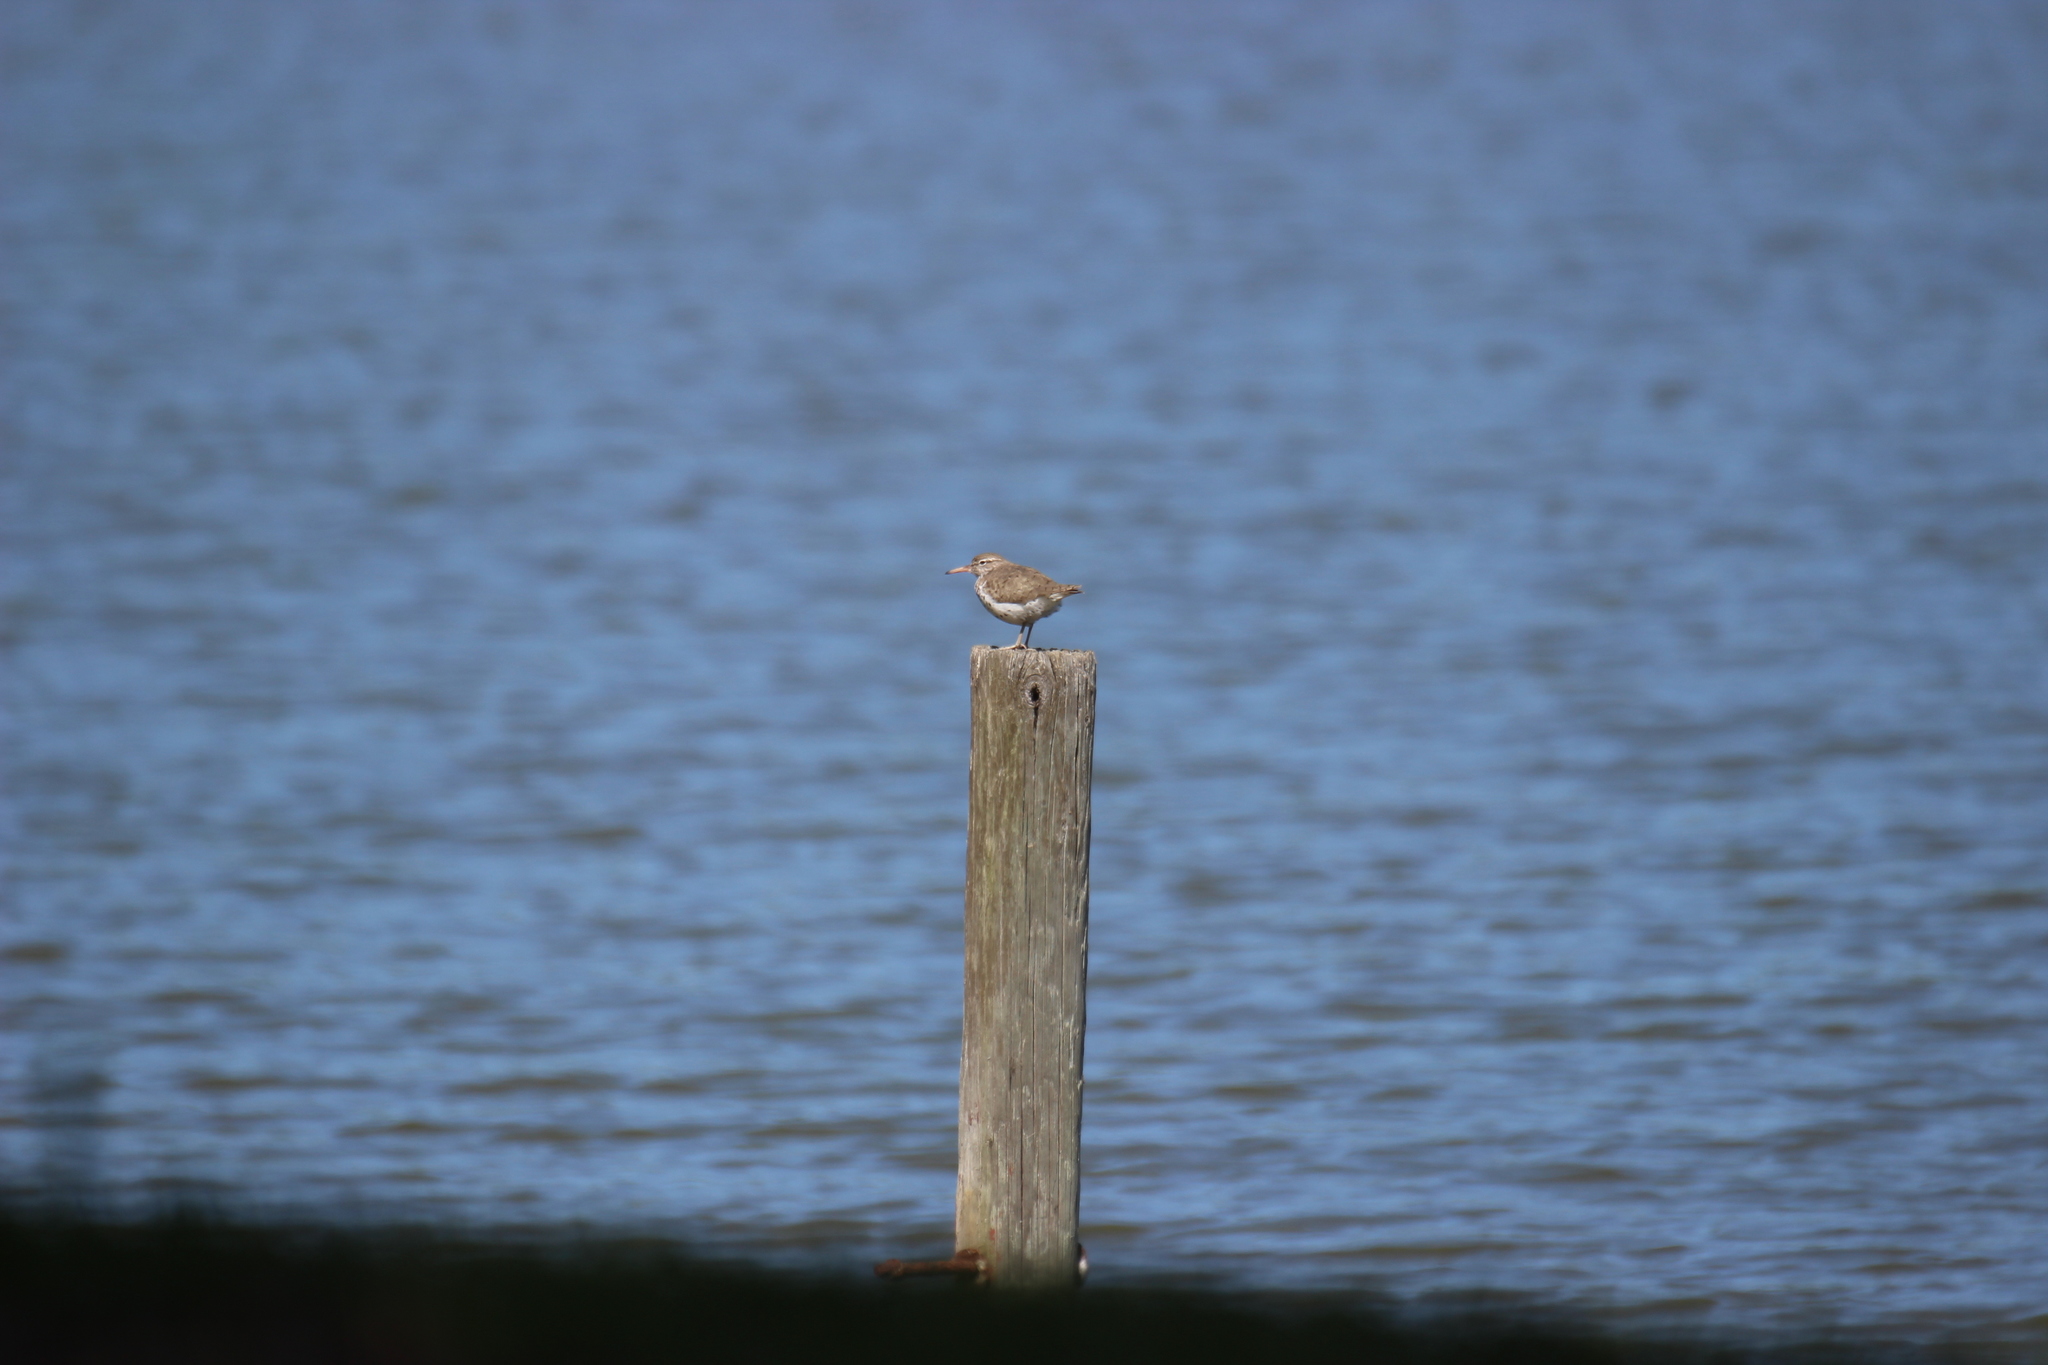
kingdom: Animalia
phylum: Chordata
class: Aves
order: Charadriiformes
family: Scolopacidae
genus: Actitis
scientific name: Actitis macularius
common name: Spotted sandpiper
